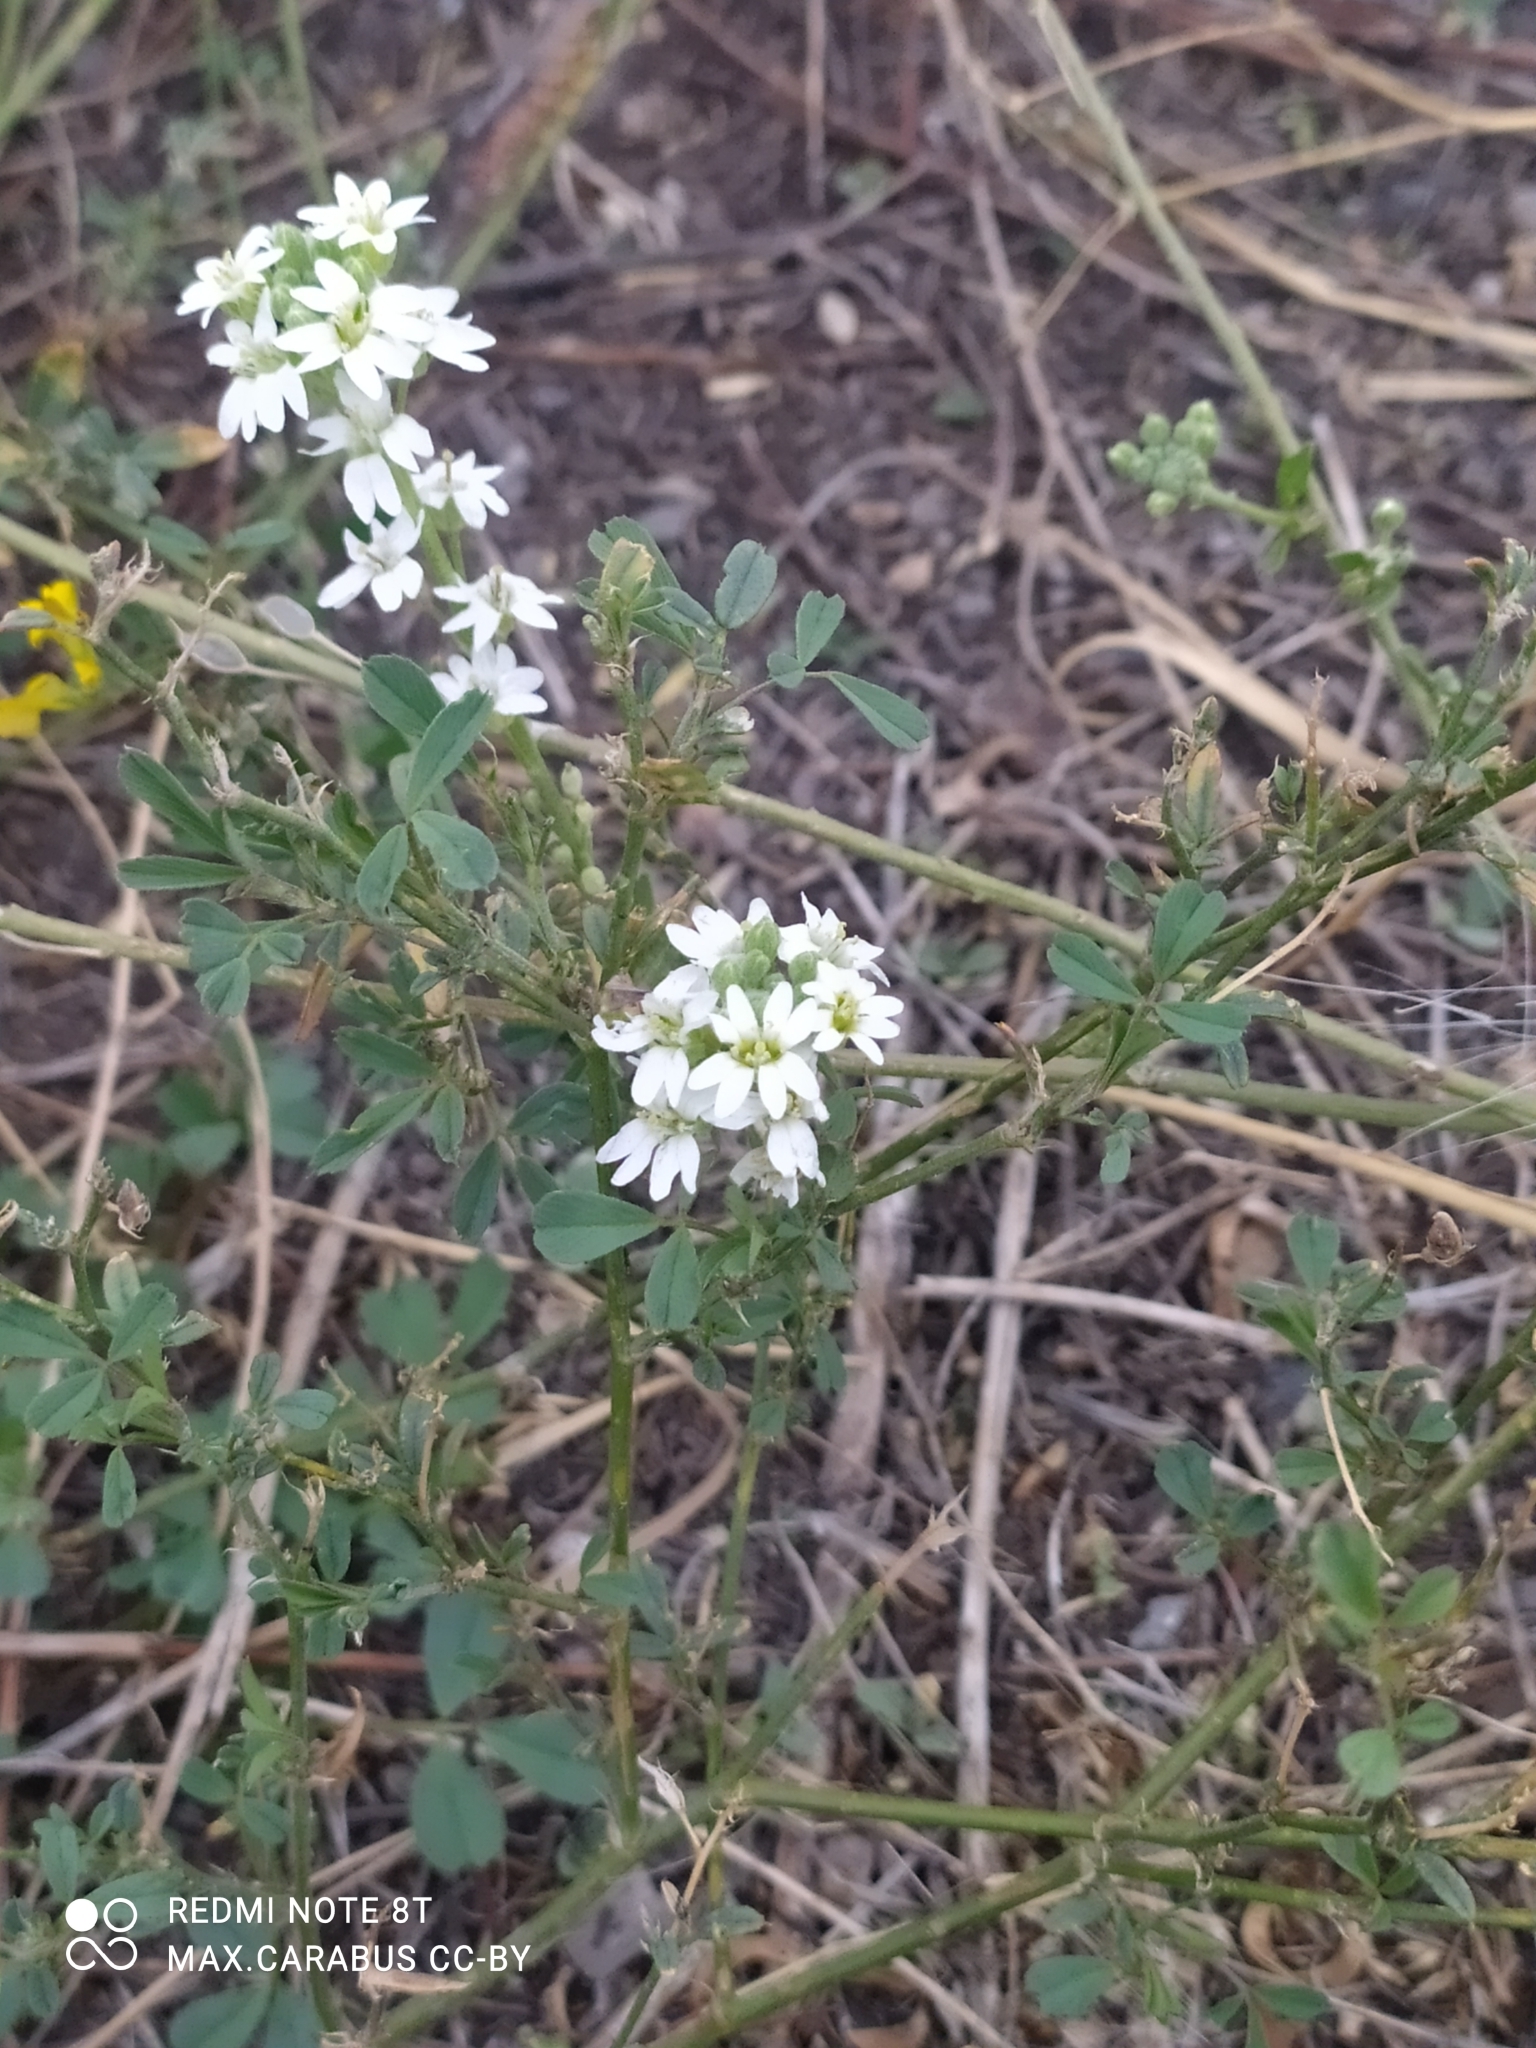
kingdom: Plantae
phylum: Tracheophyta
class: Magnoliopsida
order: Brassicales
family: Brassicaceae
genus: Berteroa
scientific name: Berteroa incana
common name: Hoary alison
